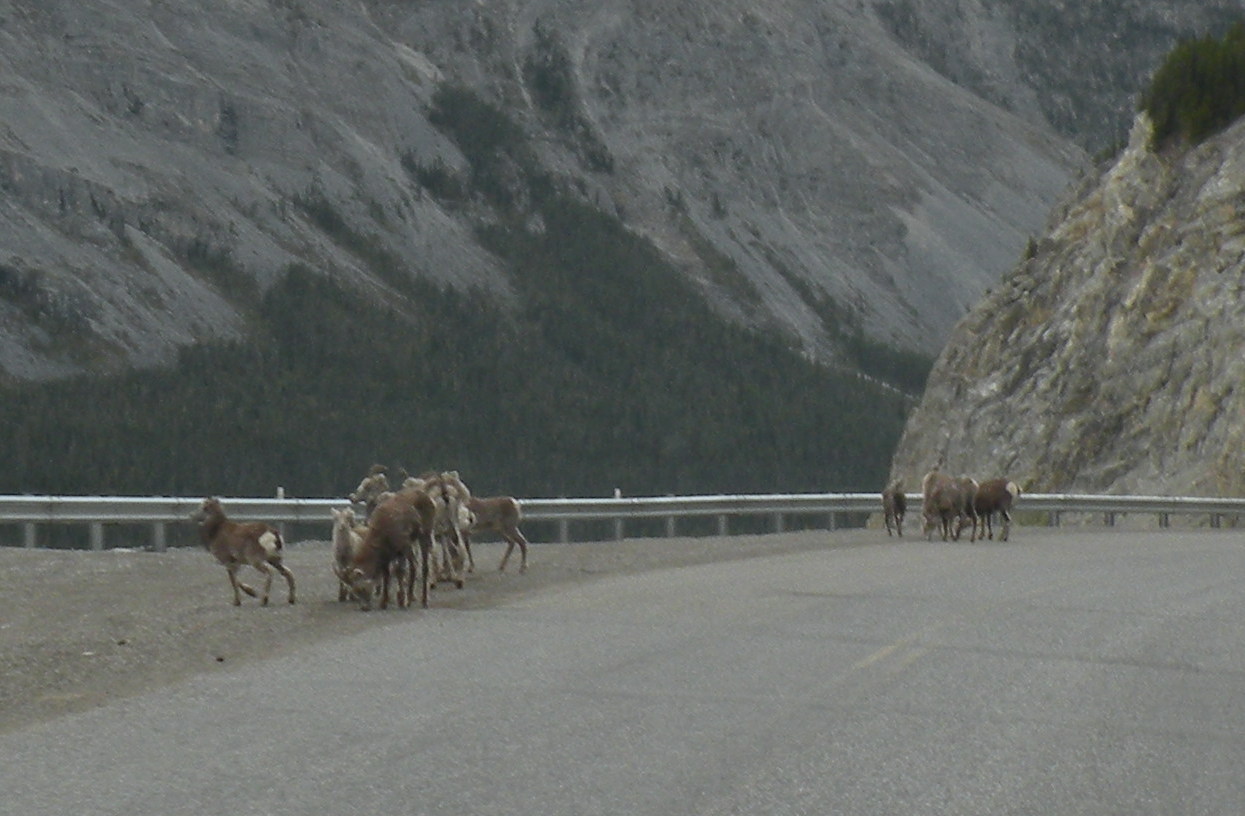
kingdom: Animalia
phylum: Chordata
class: Mammalia
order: Artiodactyla
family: Bovidae
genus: Ovis
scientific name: Ovis dalli
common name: Dall's sheep
